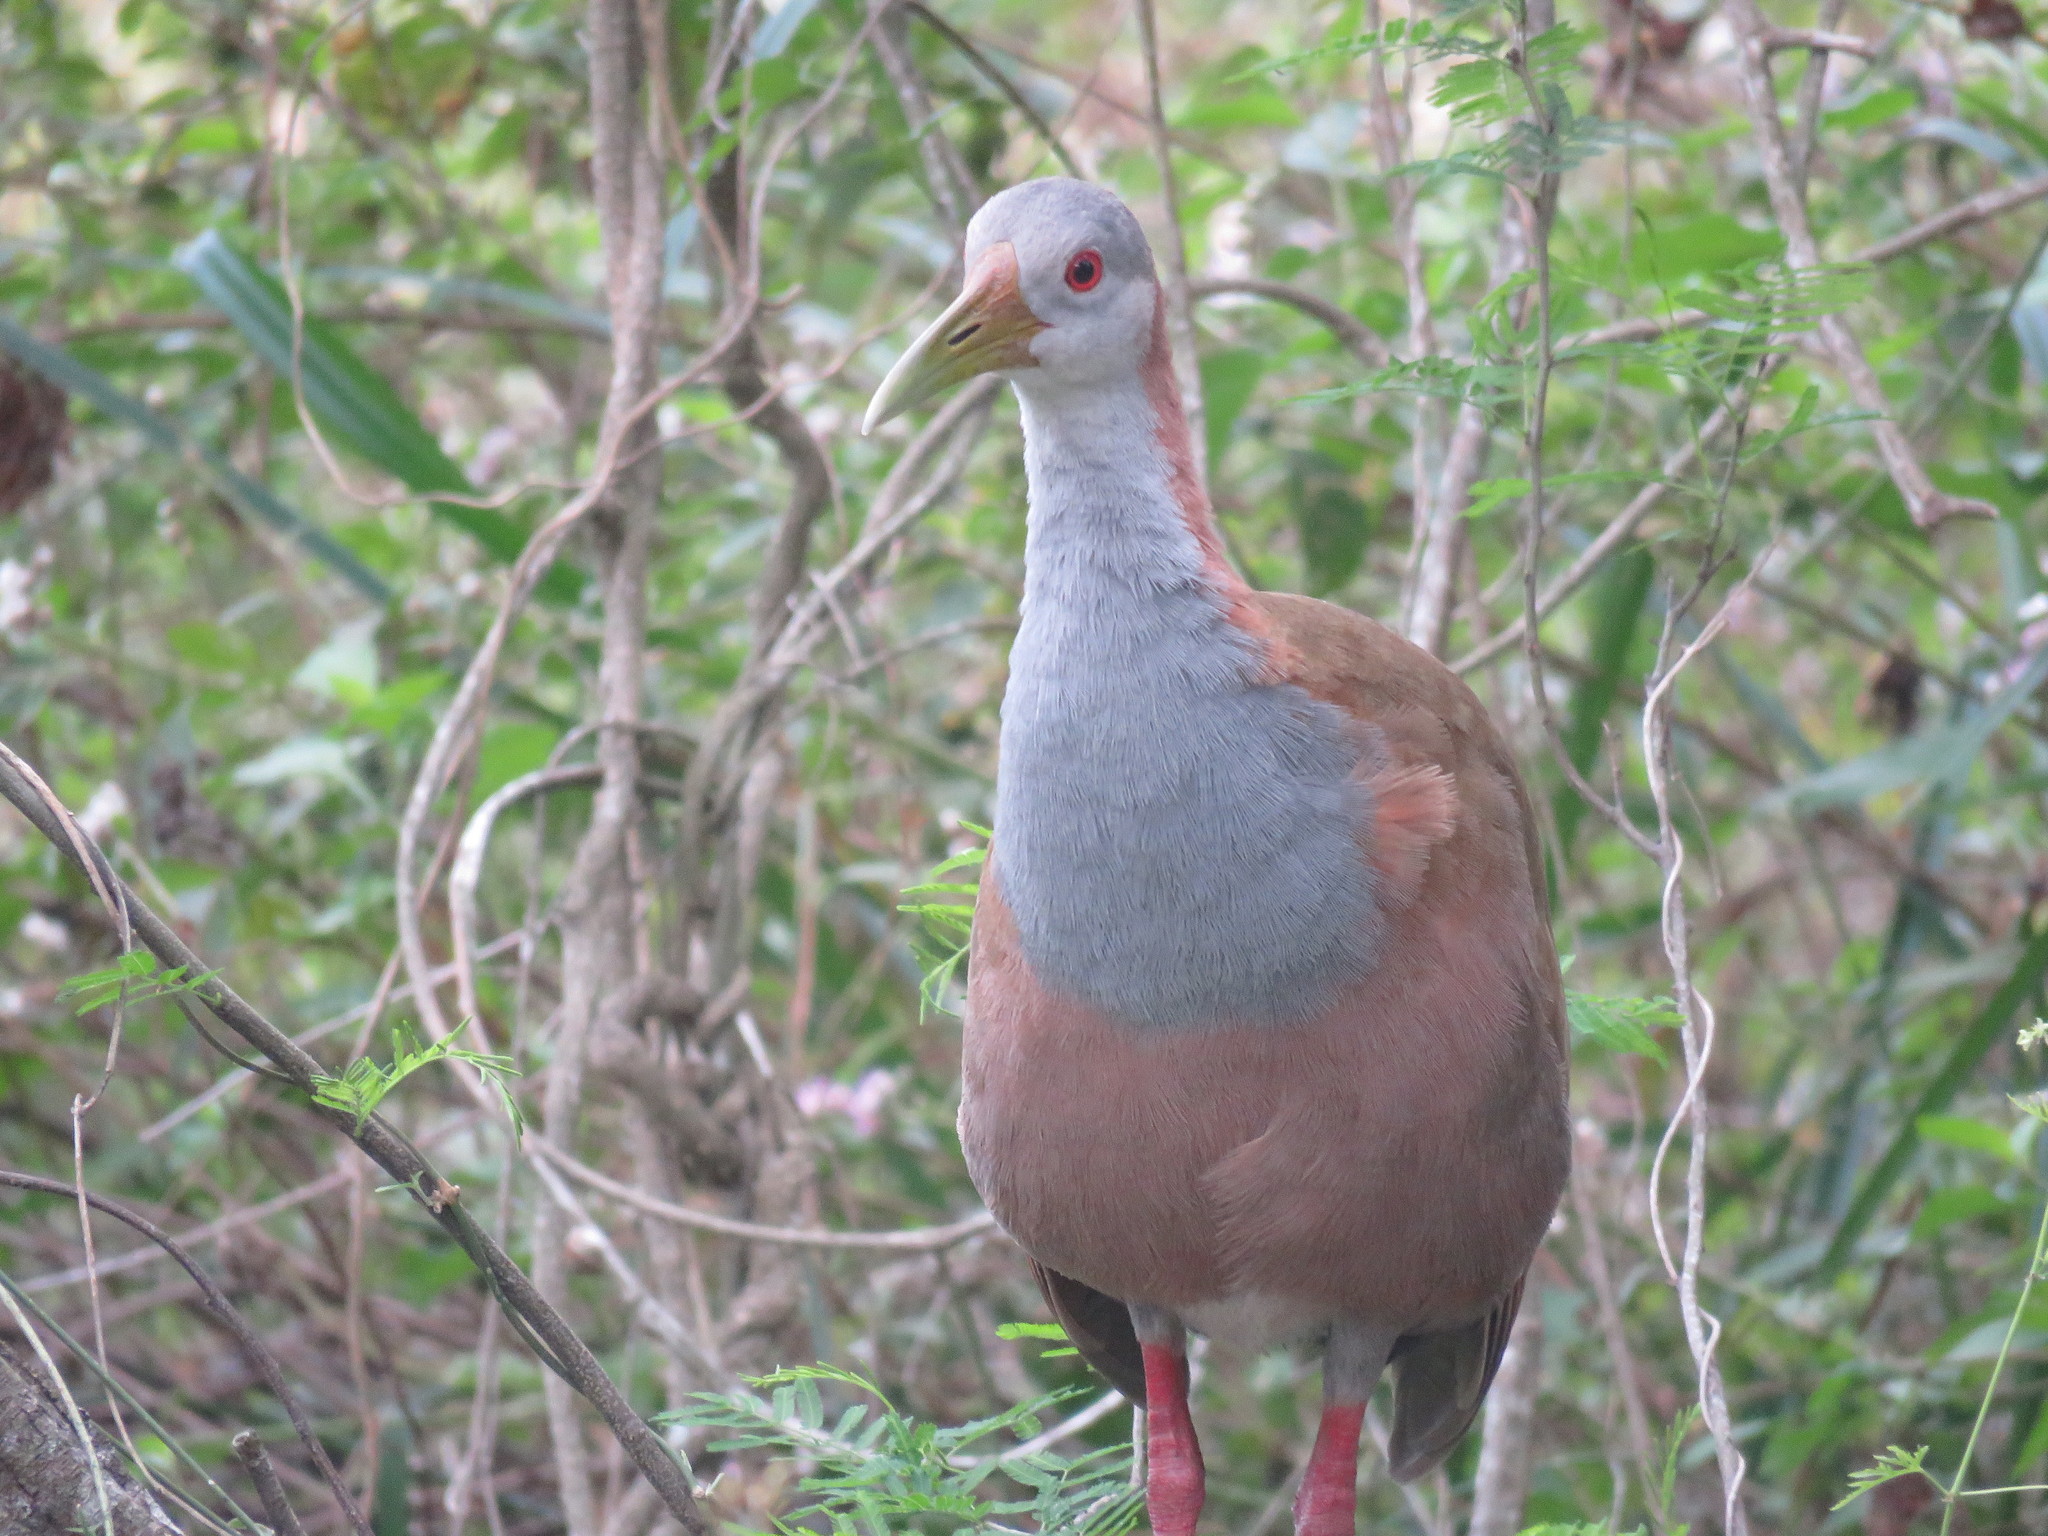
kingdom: Animalia
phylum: Chordata
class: Aves
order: Gruiformes
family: Rallidae
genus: Aramides
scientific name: Aramides ypecaha
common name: Giant wood rail
